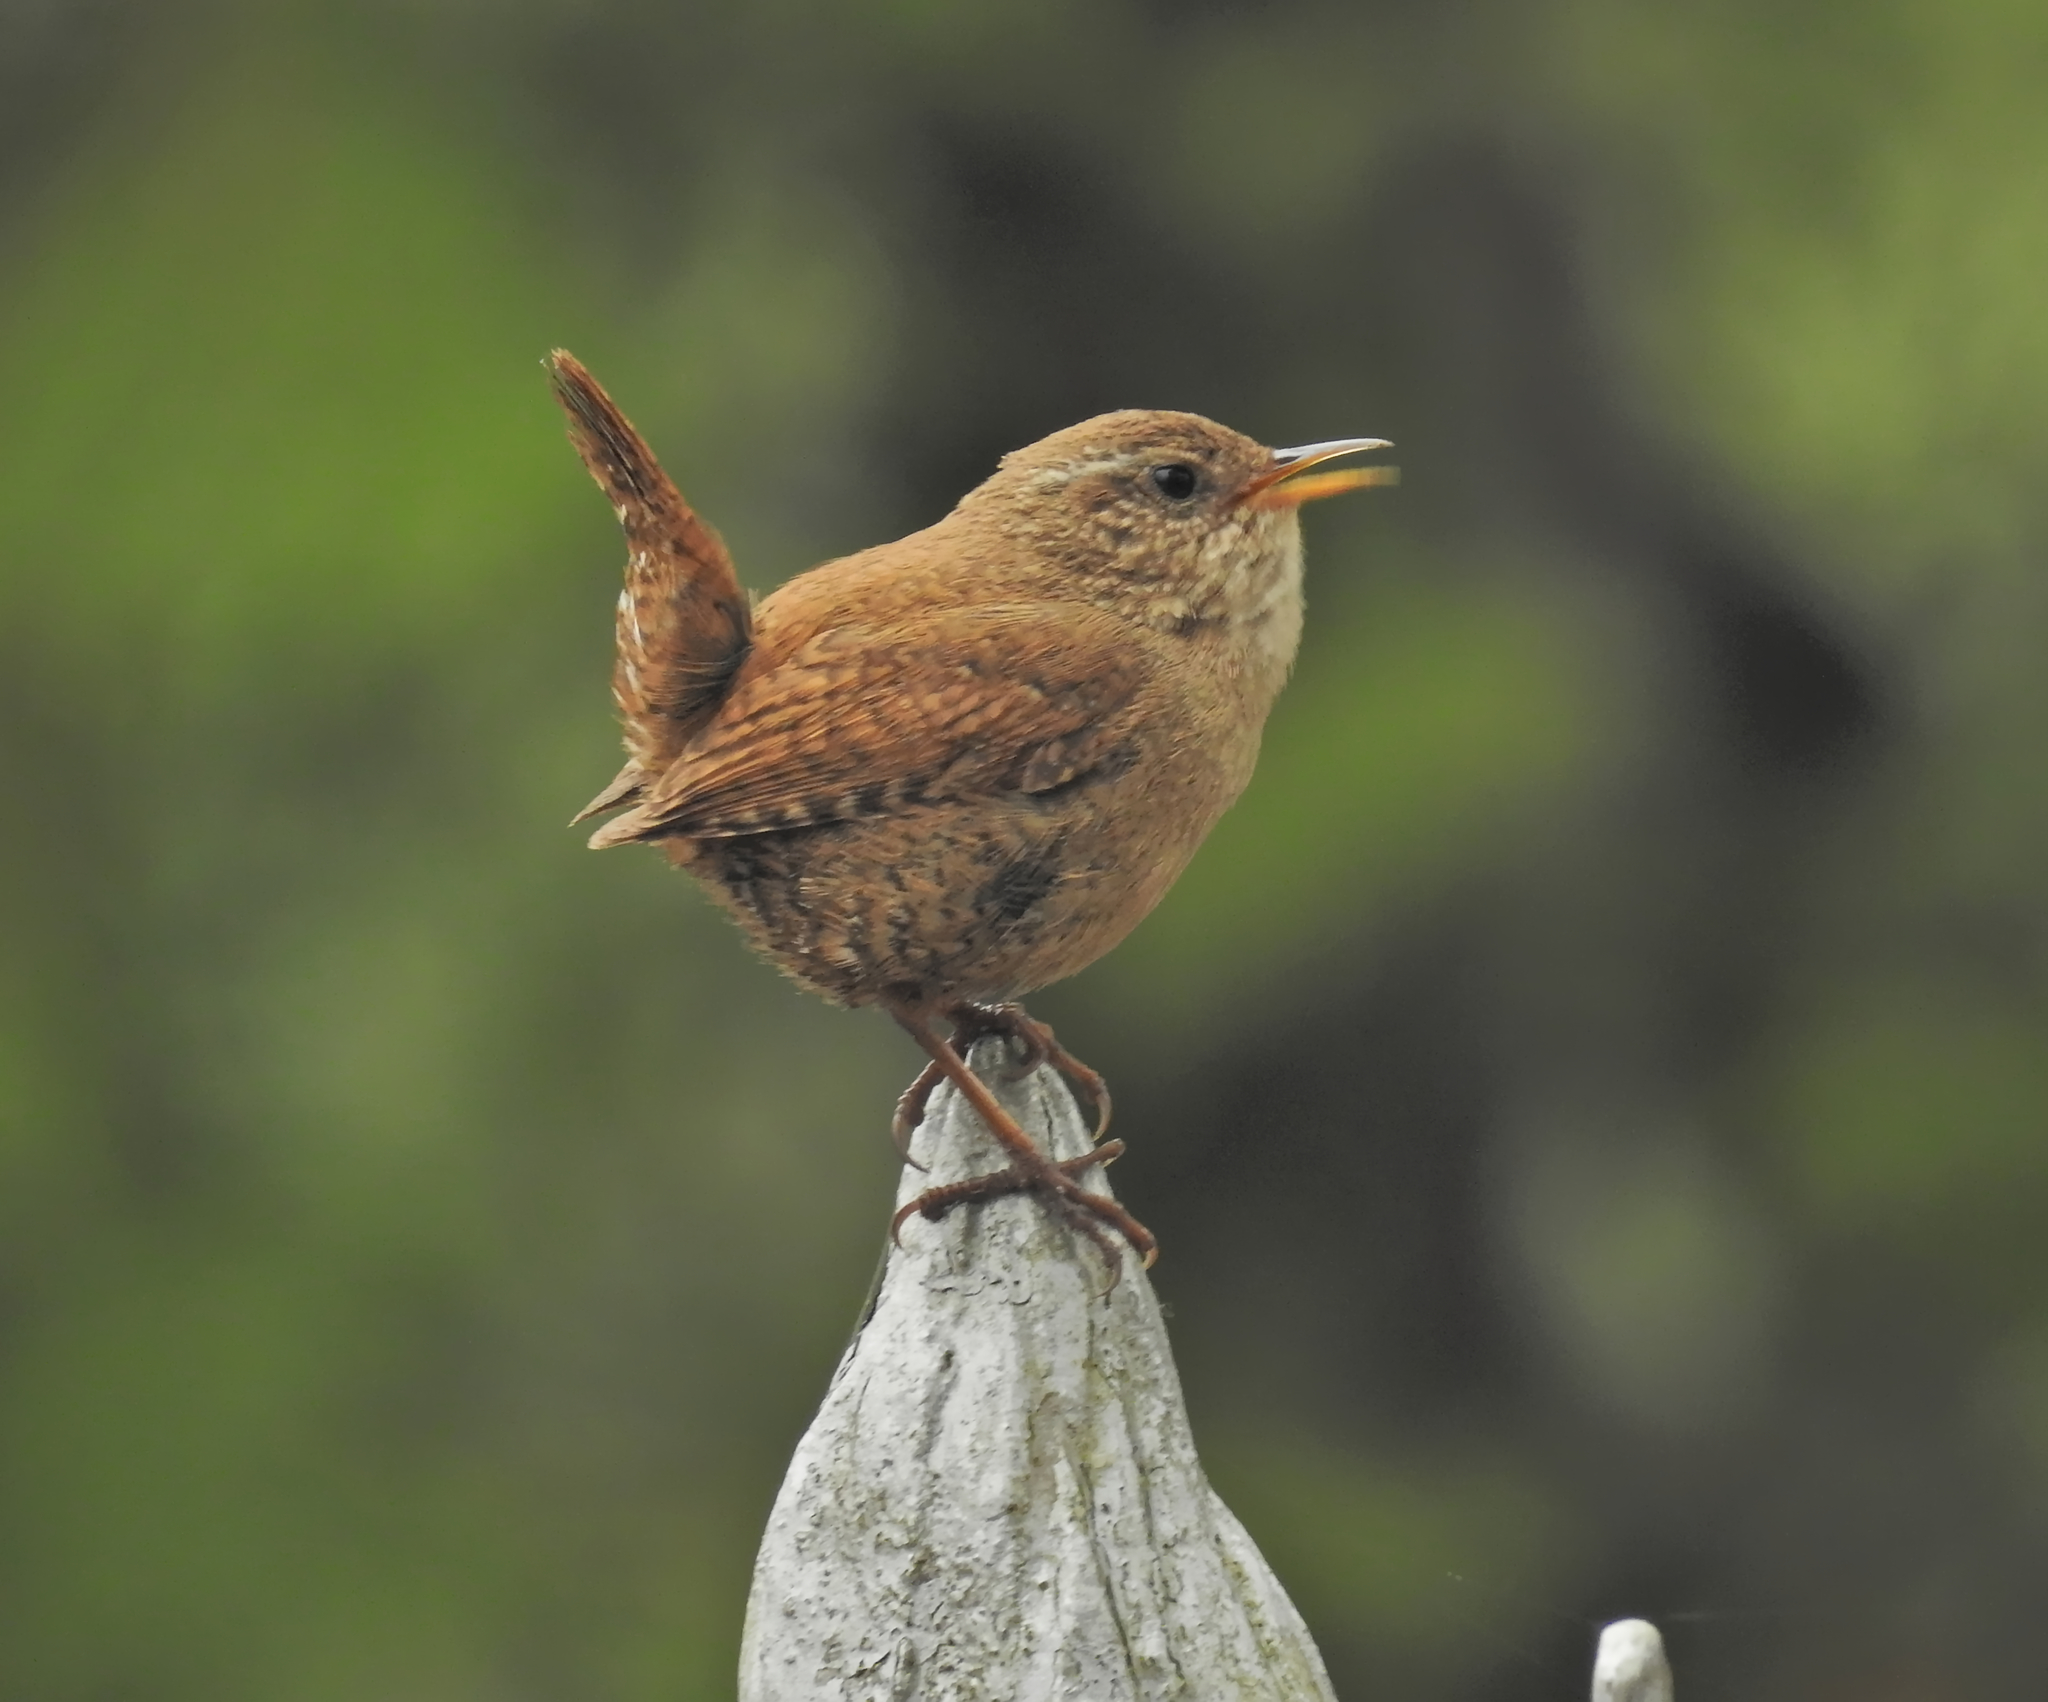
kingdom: Animalia
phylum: Chordata
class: Aves
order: Passeriformes
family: Troglodytidae
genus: Troglodytes
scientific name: Troglodytes troglodytes
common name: Eurasian wren
